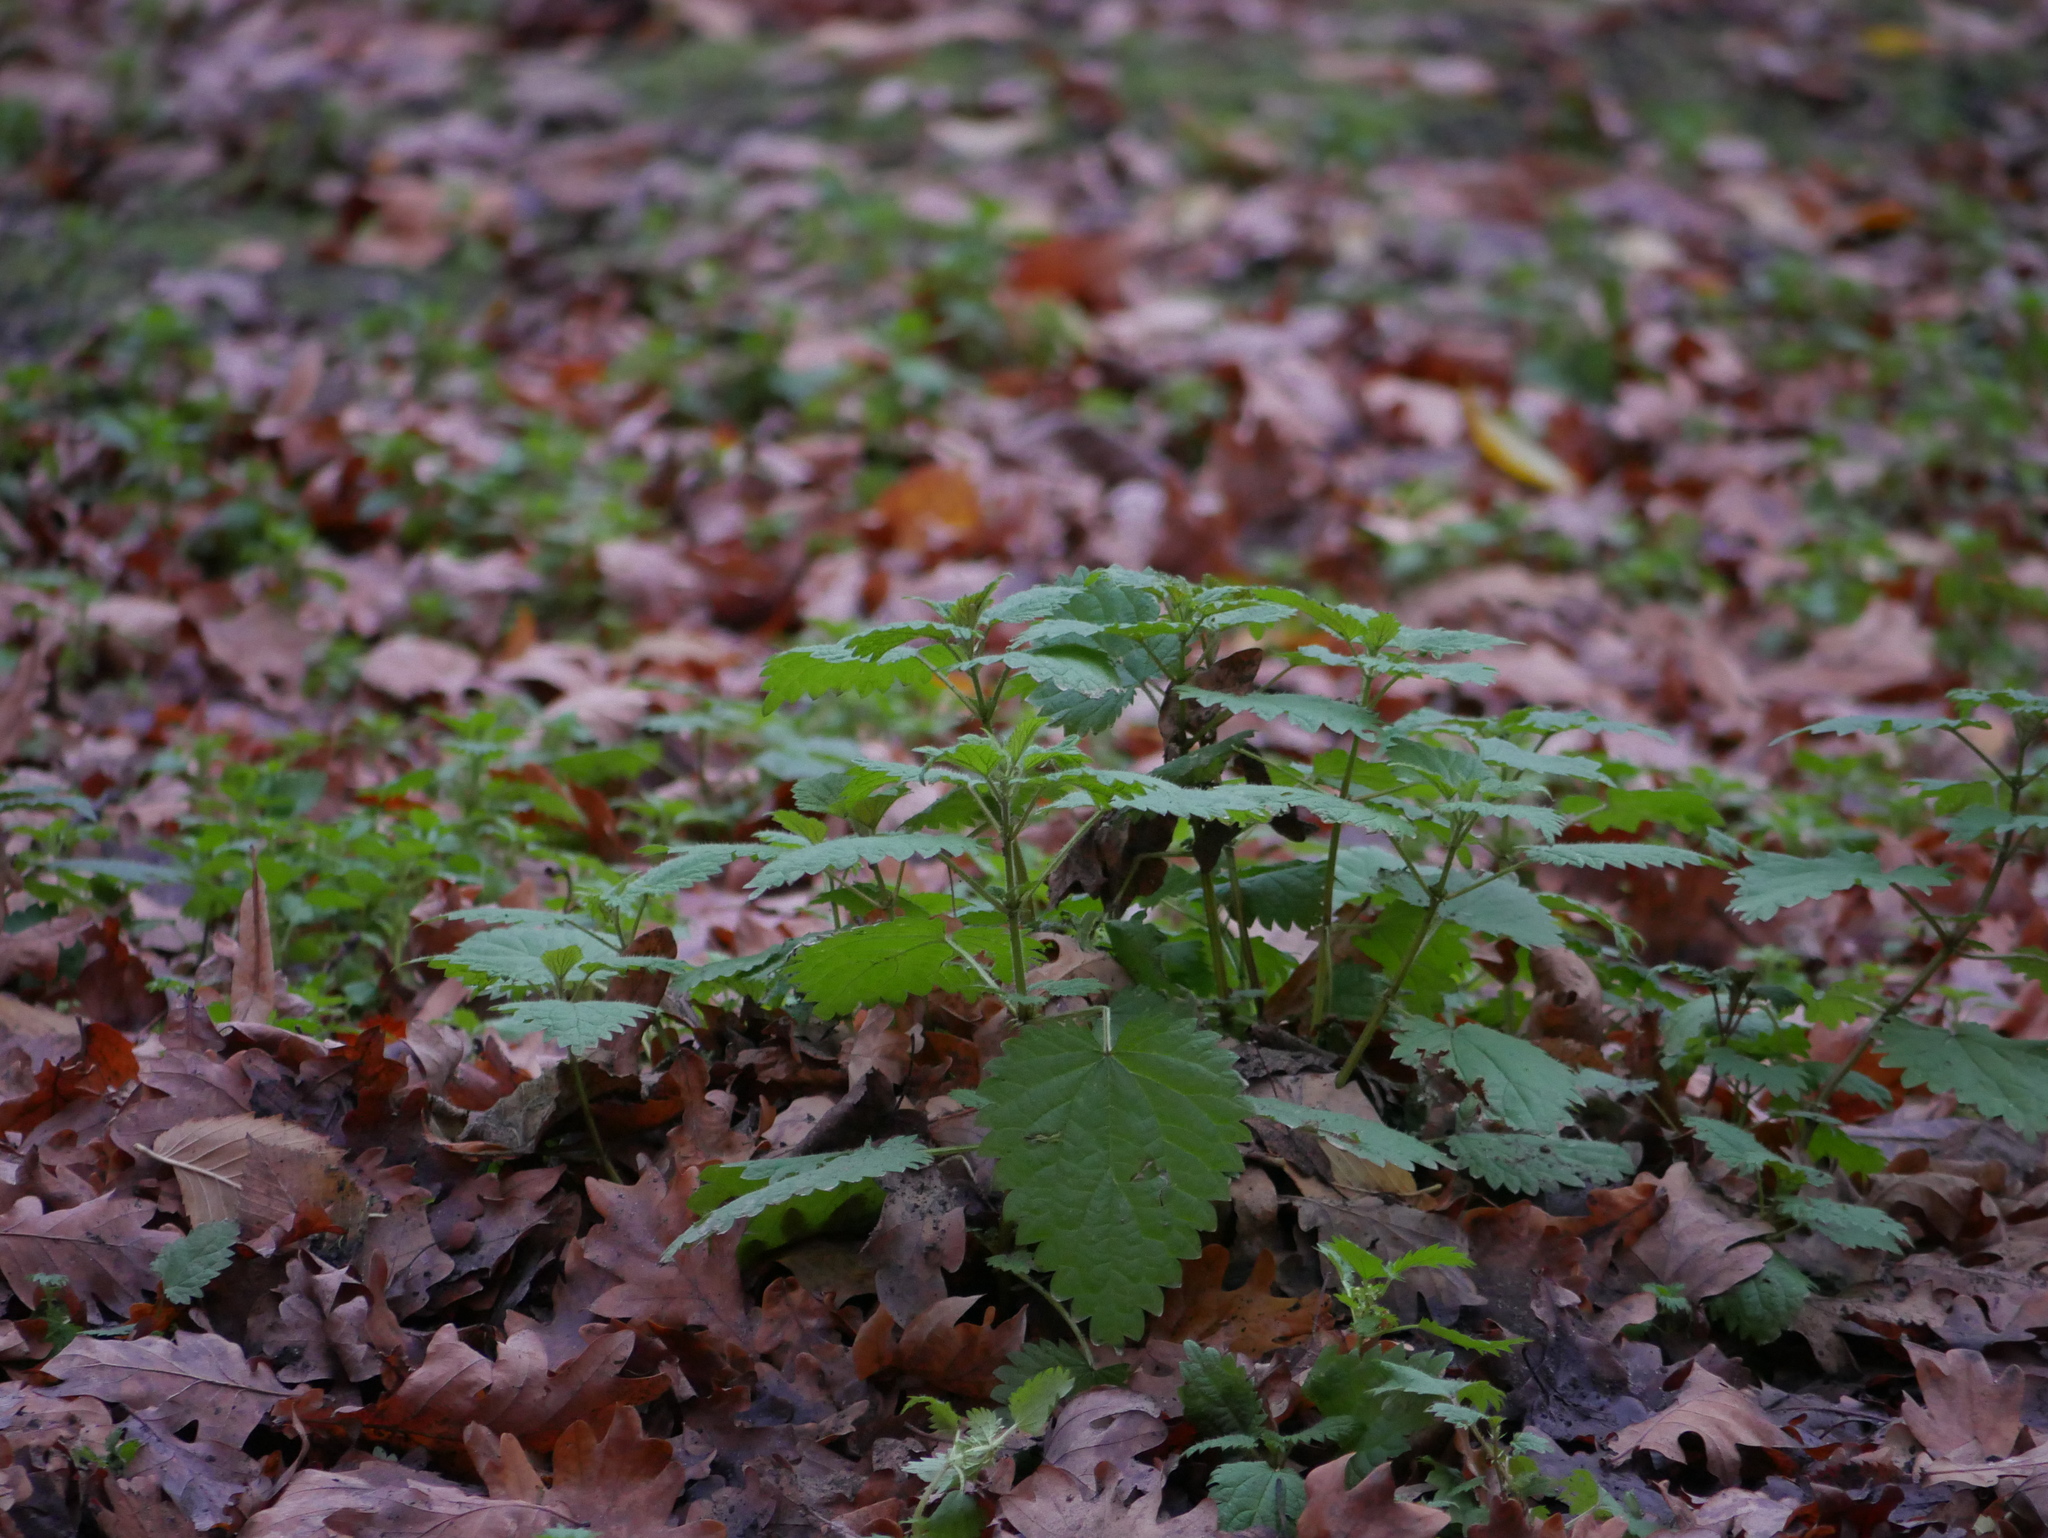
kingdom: Plantae
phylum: Tracheophyta
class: Magnoliopsida
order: Rosales
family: Urticaceae
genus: Urtica
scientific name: Urtica dioica
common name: Common nettle
